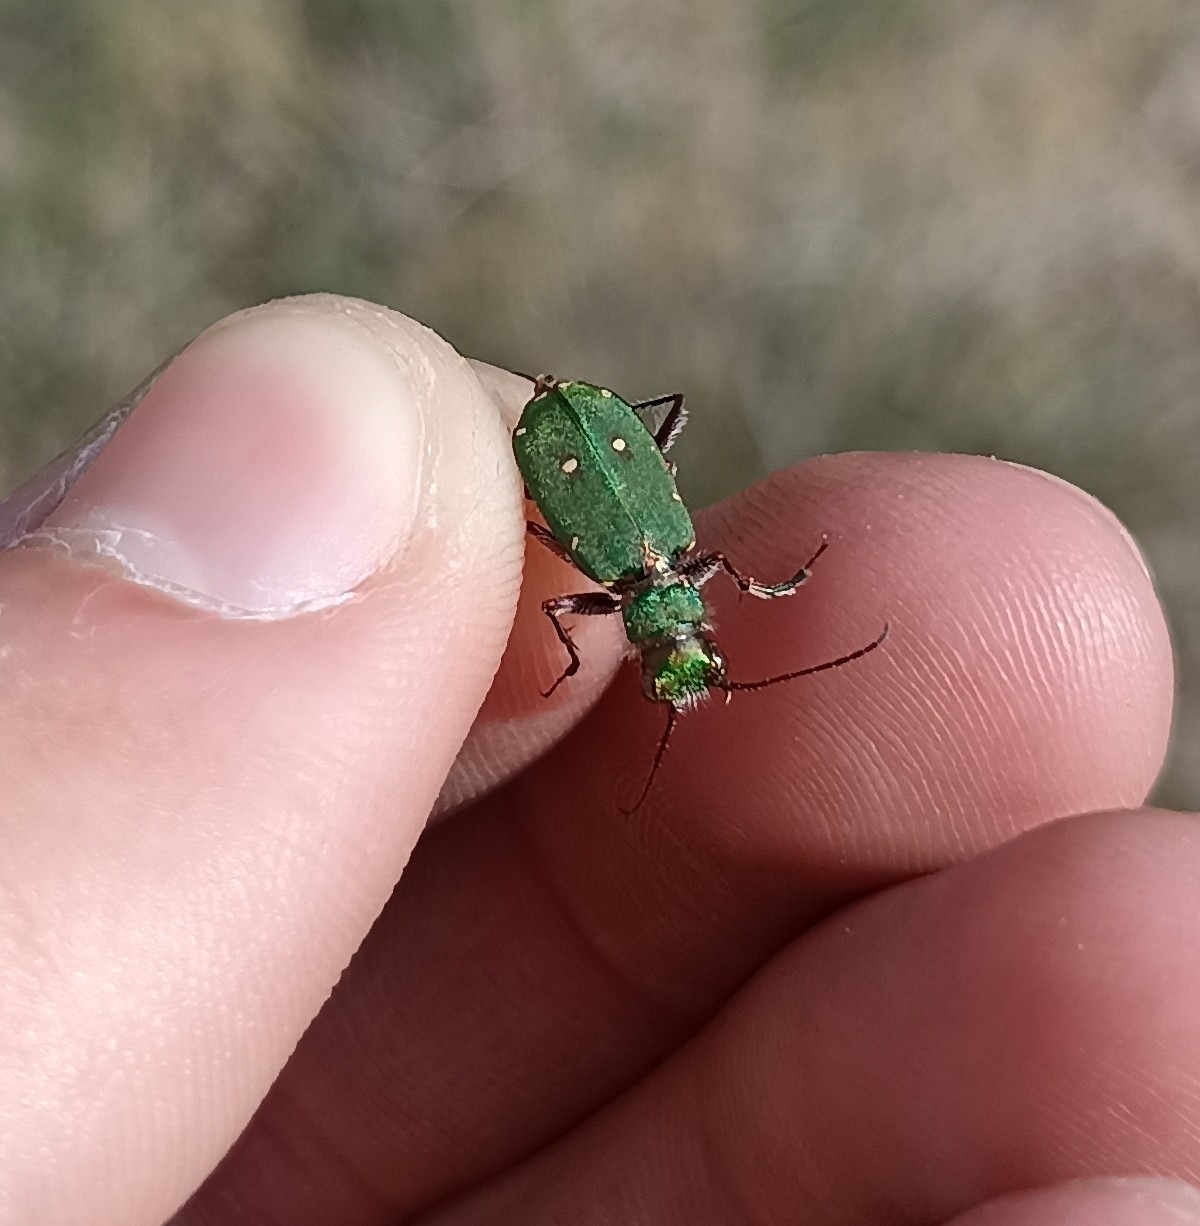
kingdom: Animalia
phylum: Arthropoda
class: Insecta
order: Coleoptera
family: Carabidae
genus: Cicindela
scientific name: Cicindela campestris
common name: Common tiger beetle
